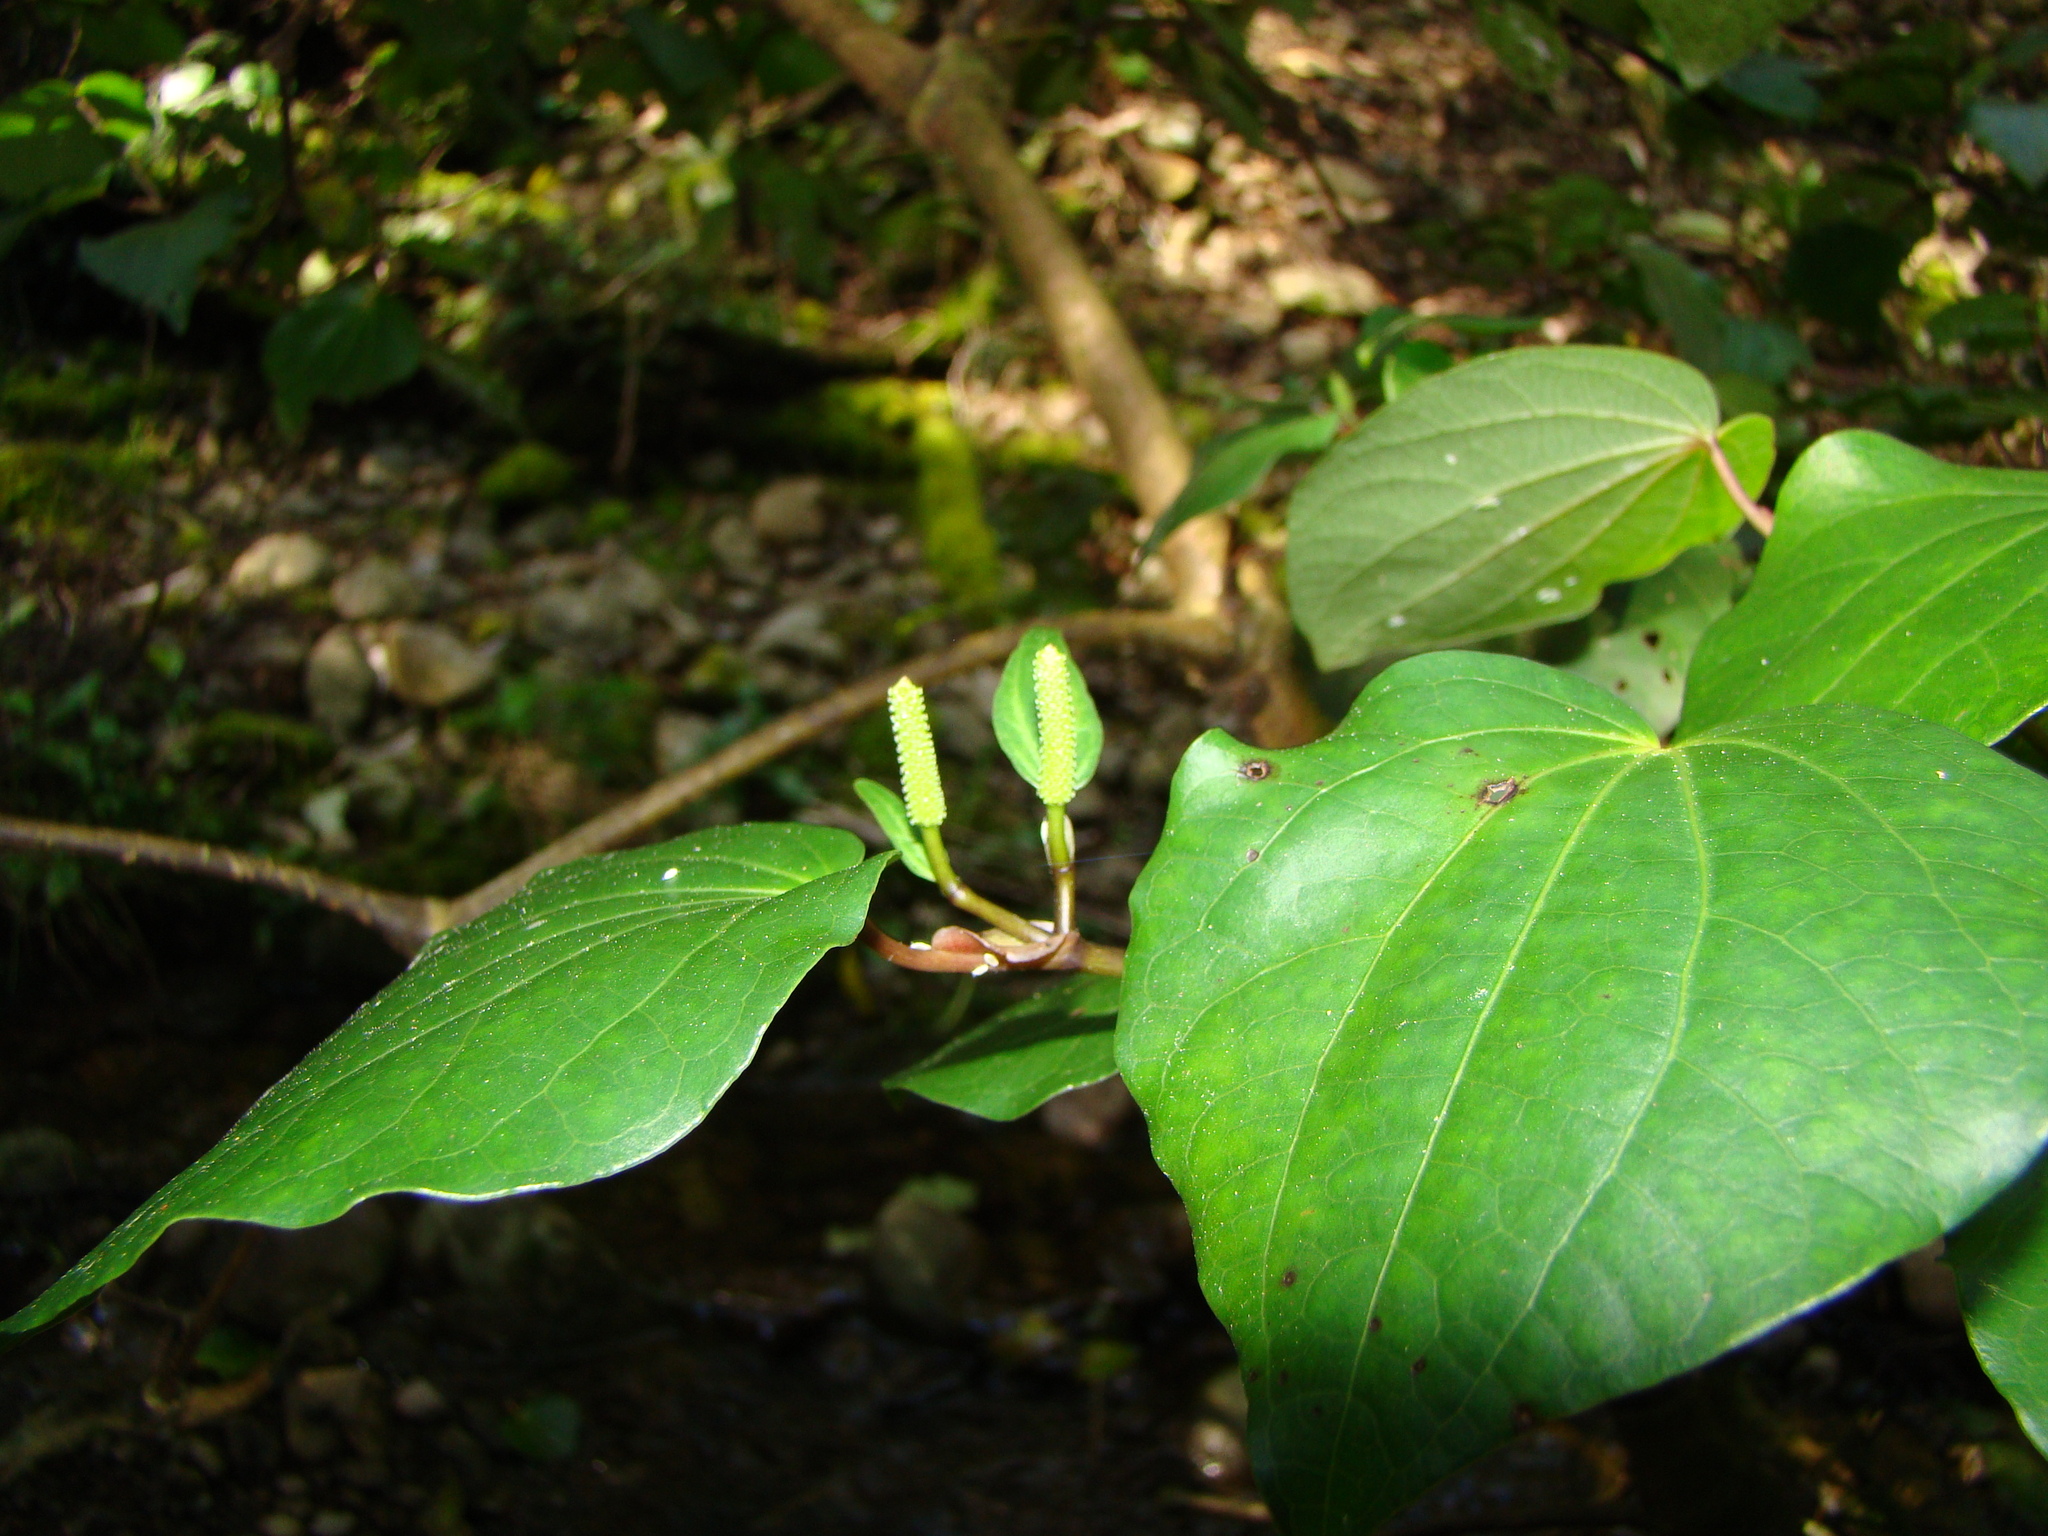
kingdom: Plantae
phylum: Tracheophyta
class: Magnoliopsida
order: Piperales
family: Piperaceae
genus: Macropiper
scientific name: Macropiper excelsum
